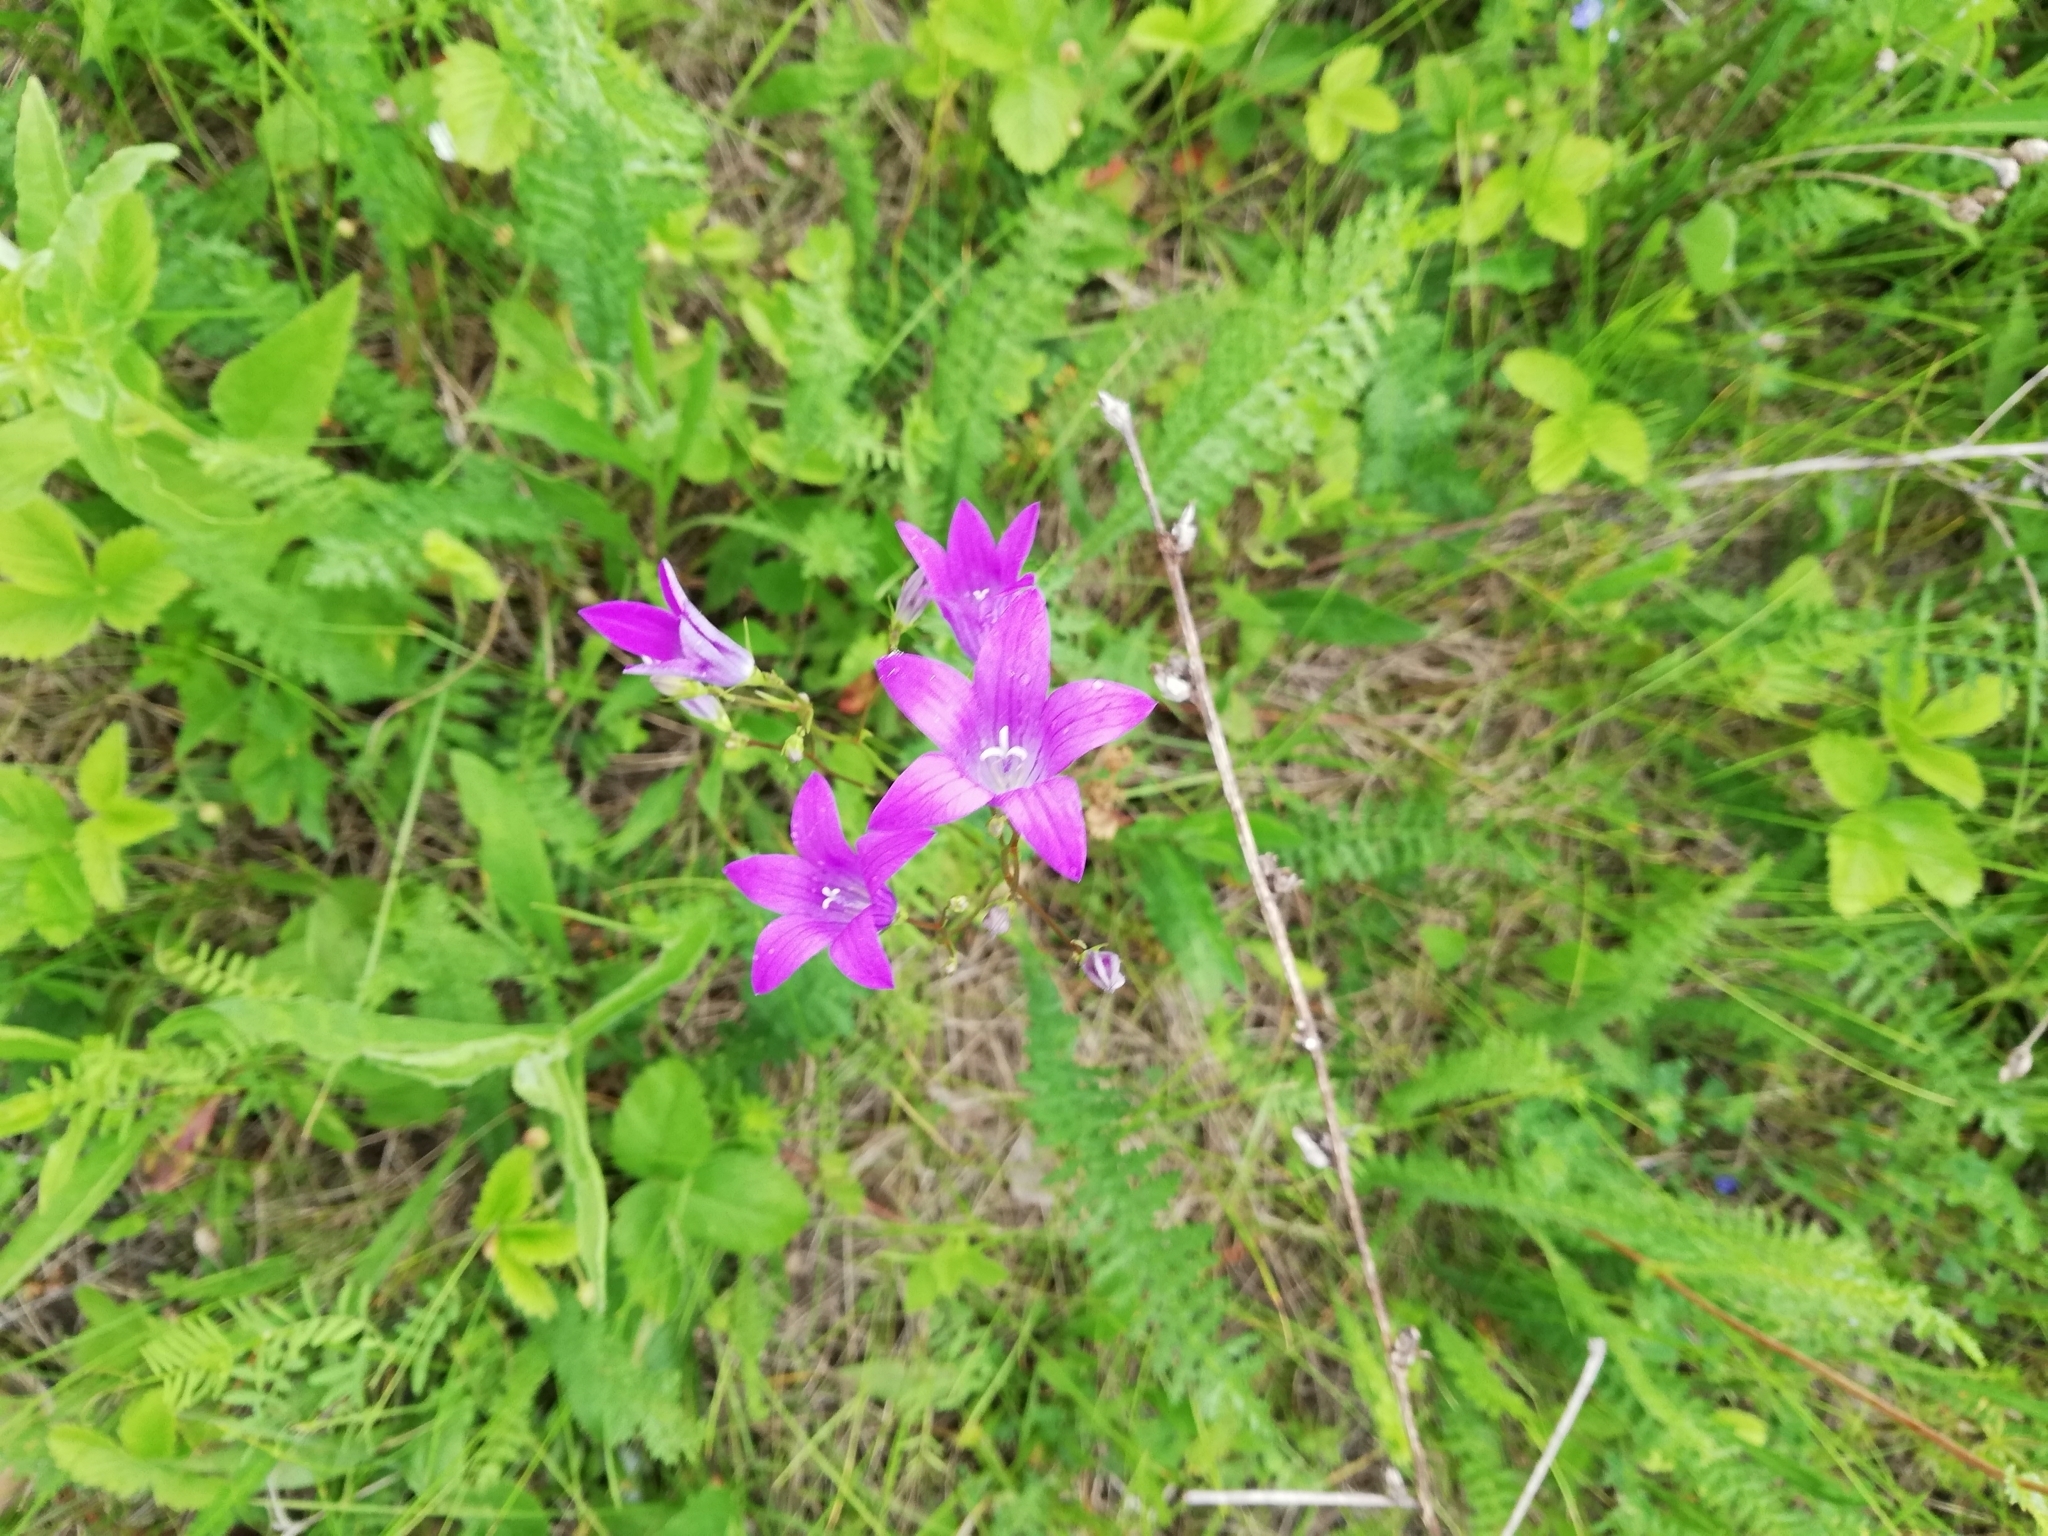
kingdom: Plantae
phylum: Tracheophyta
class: Magnoliopsida
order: Asterales
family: Campanulaceae
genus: Campanula
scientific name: Campanula patula
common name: Spreading bellflower
